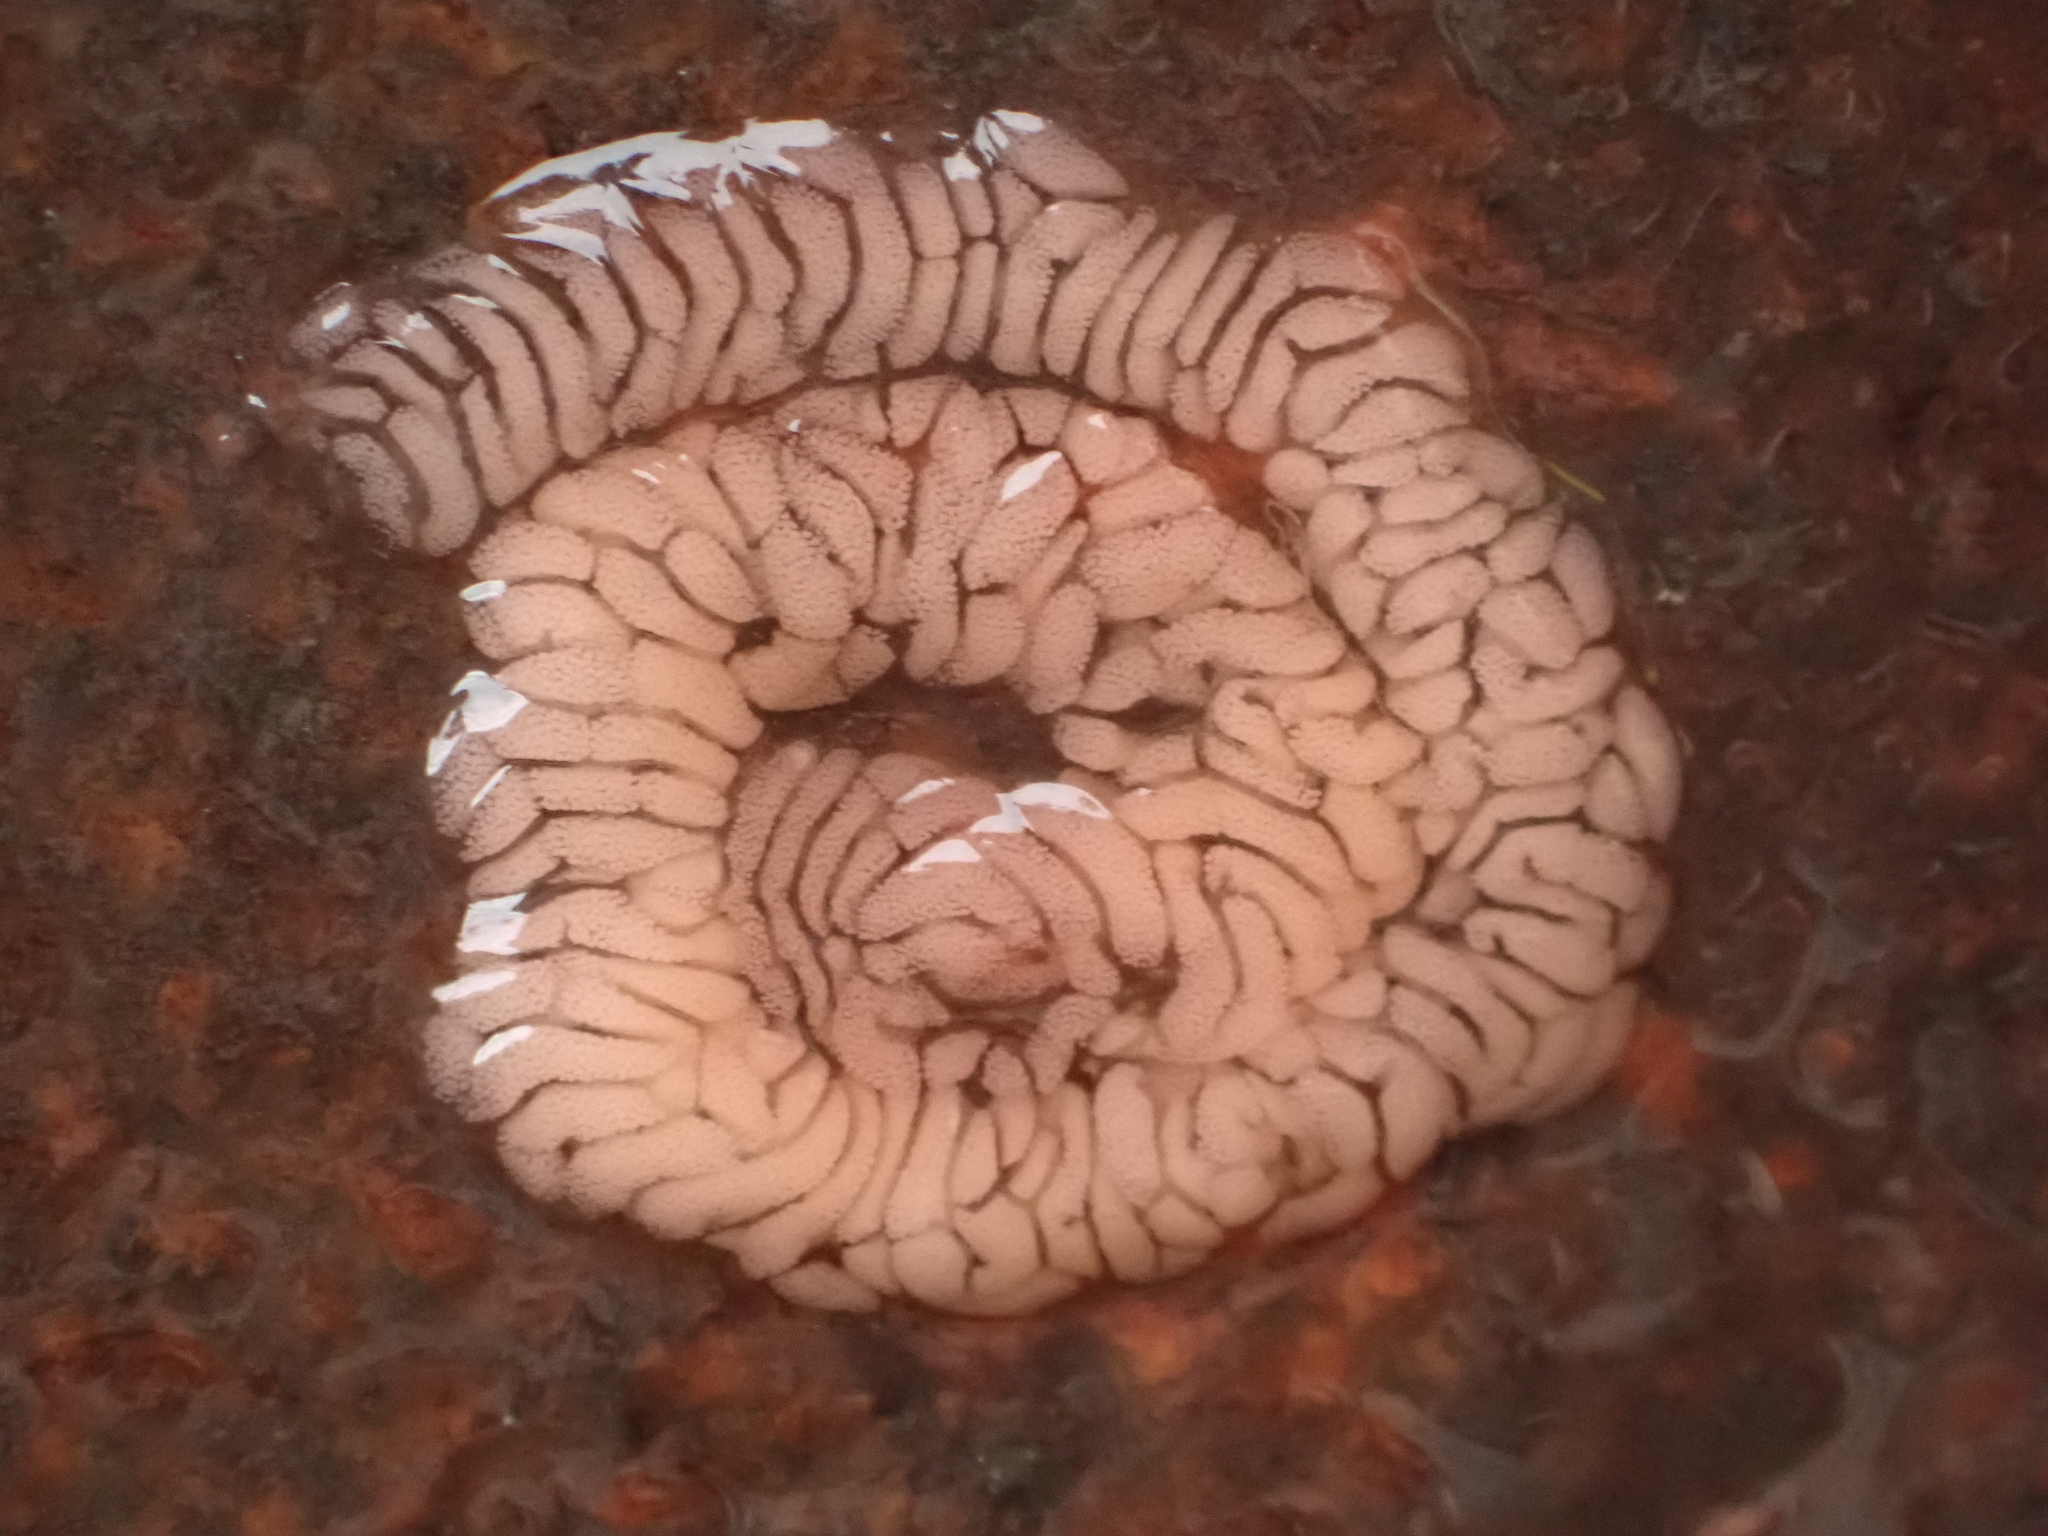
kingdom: Animalia
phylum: Mollusca
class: Gastropoda
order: Nudibranchia
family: Aeolidiidae
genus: Aeolidia
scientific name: Aeolidia papillosa
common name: Common grey sea slug
